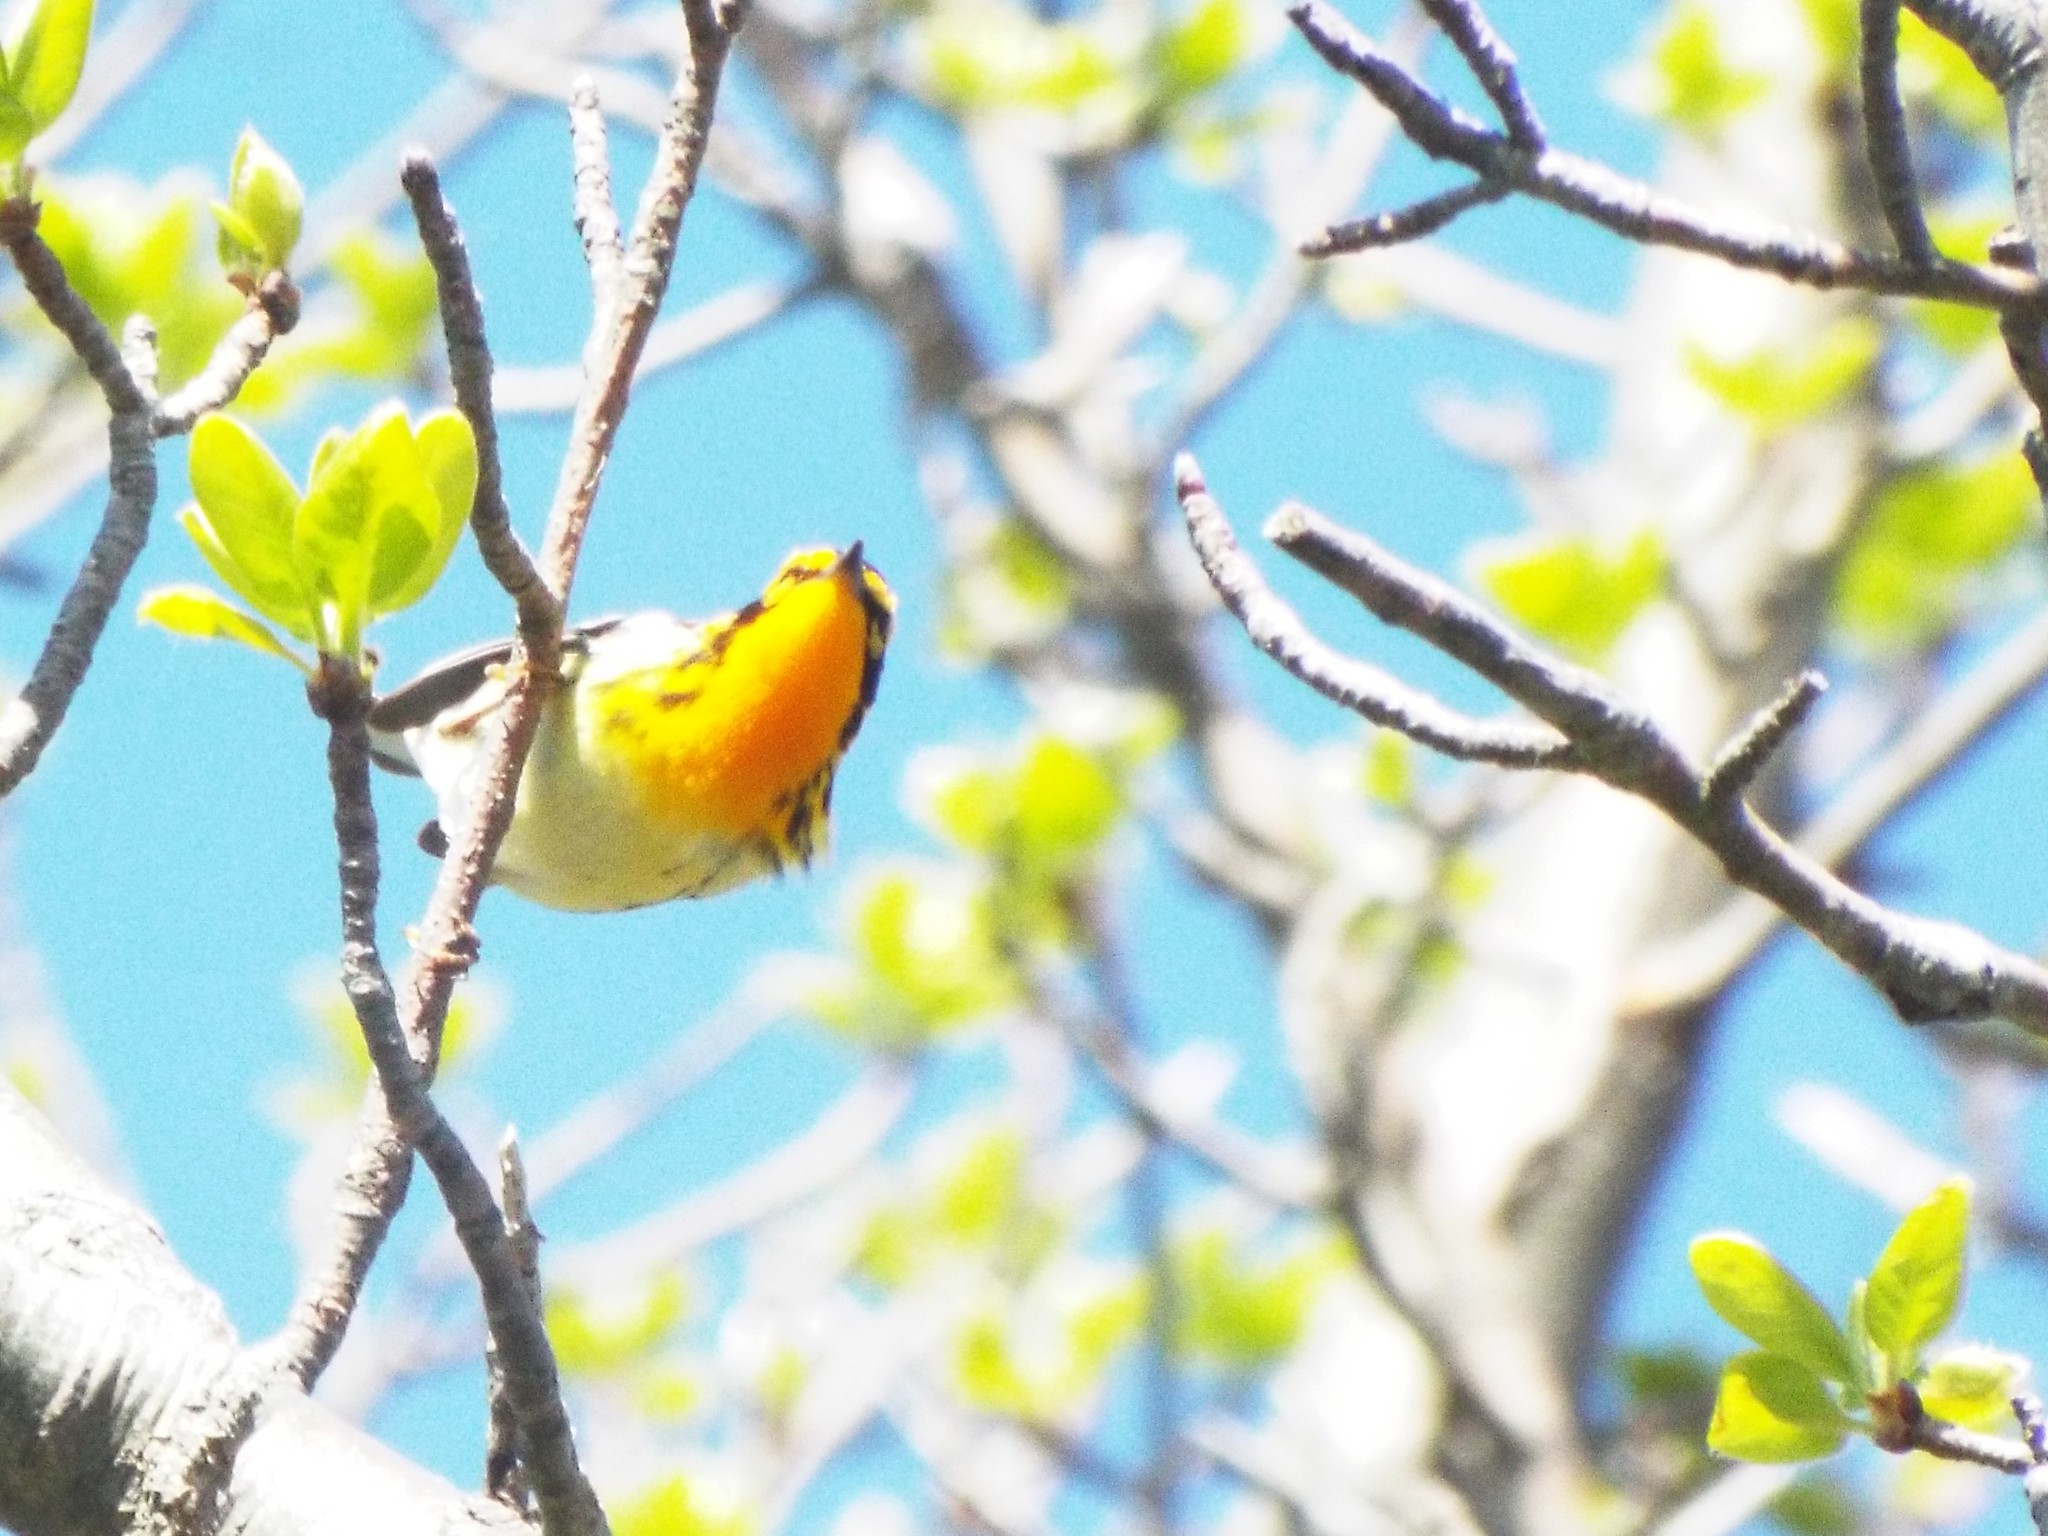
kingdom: Animalia
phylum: Chordata
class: Aves
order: Passeriformes
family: Parulidae
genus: Setophaga
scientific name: Setophaga fusca
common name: Blackburnian warbler
